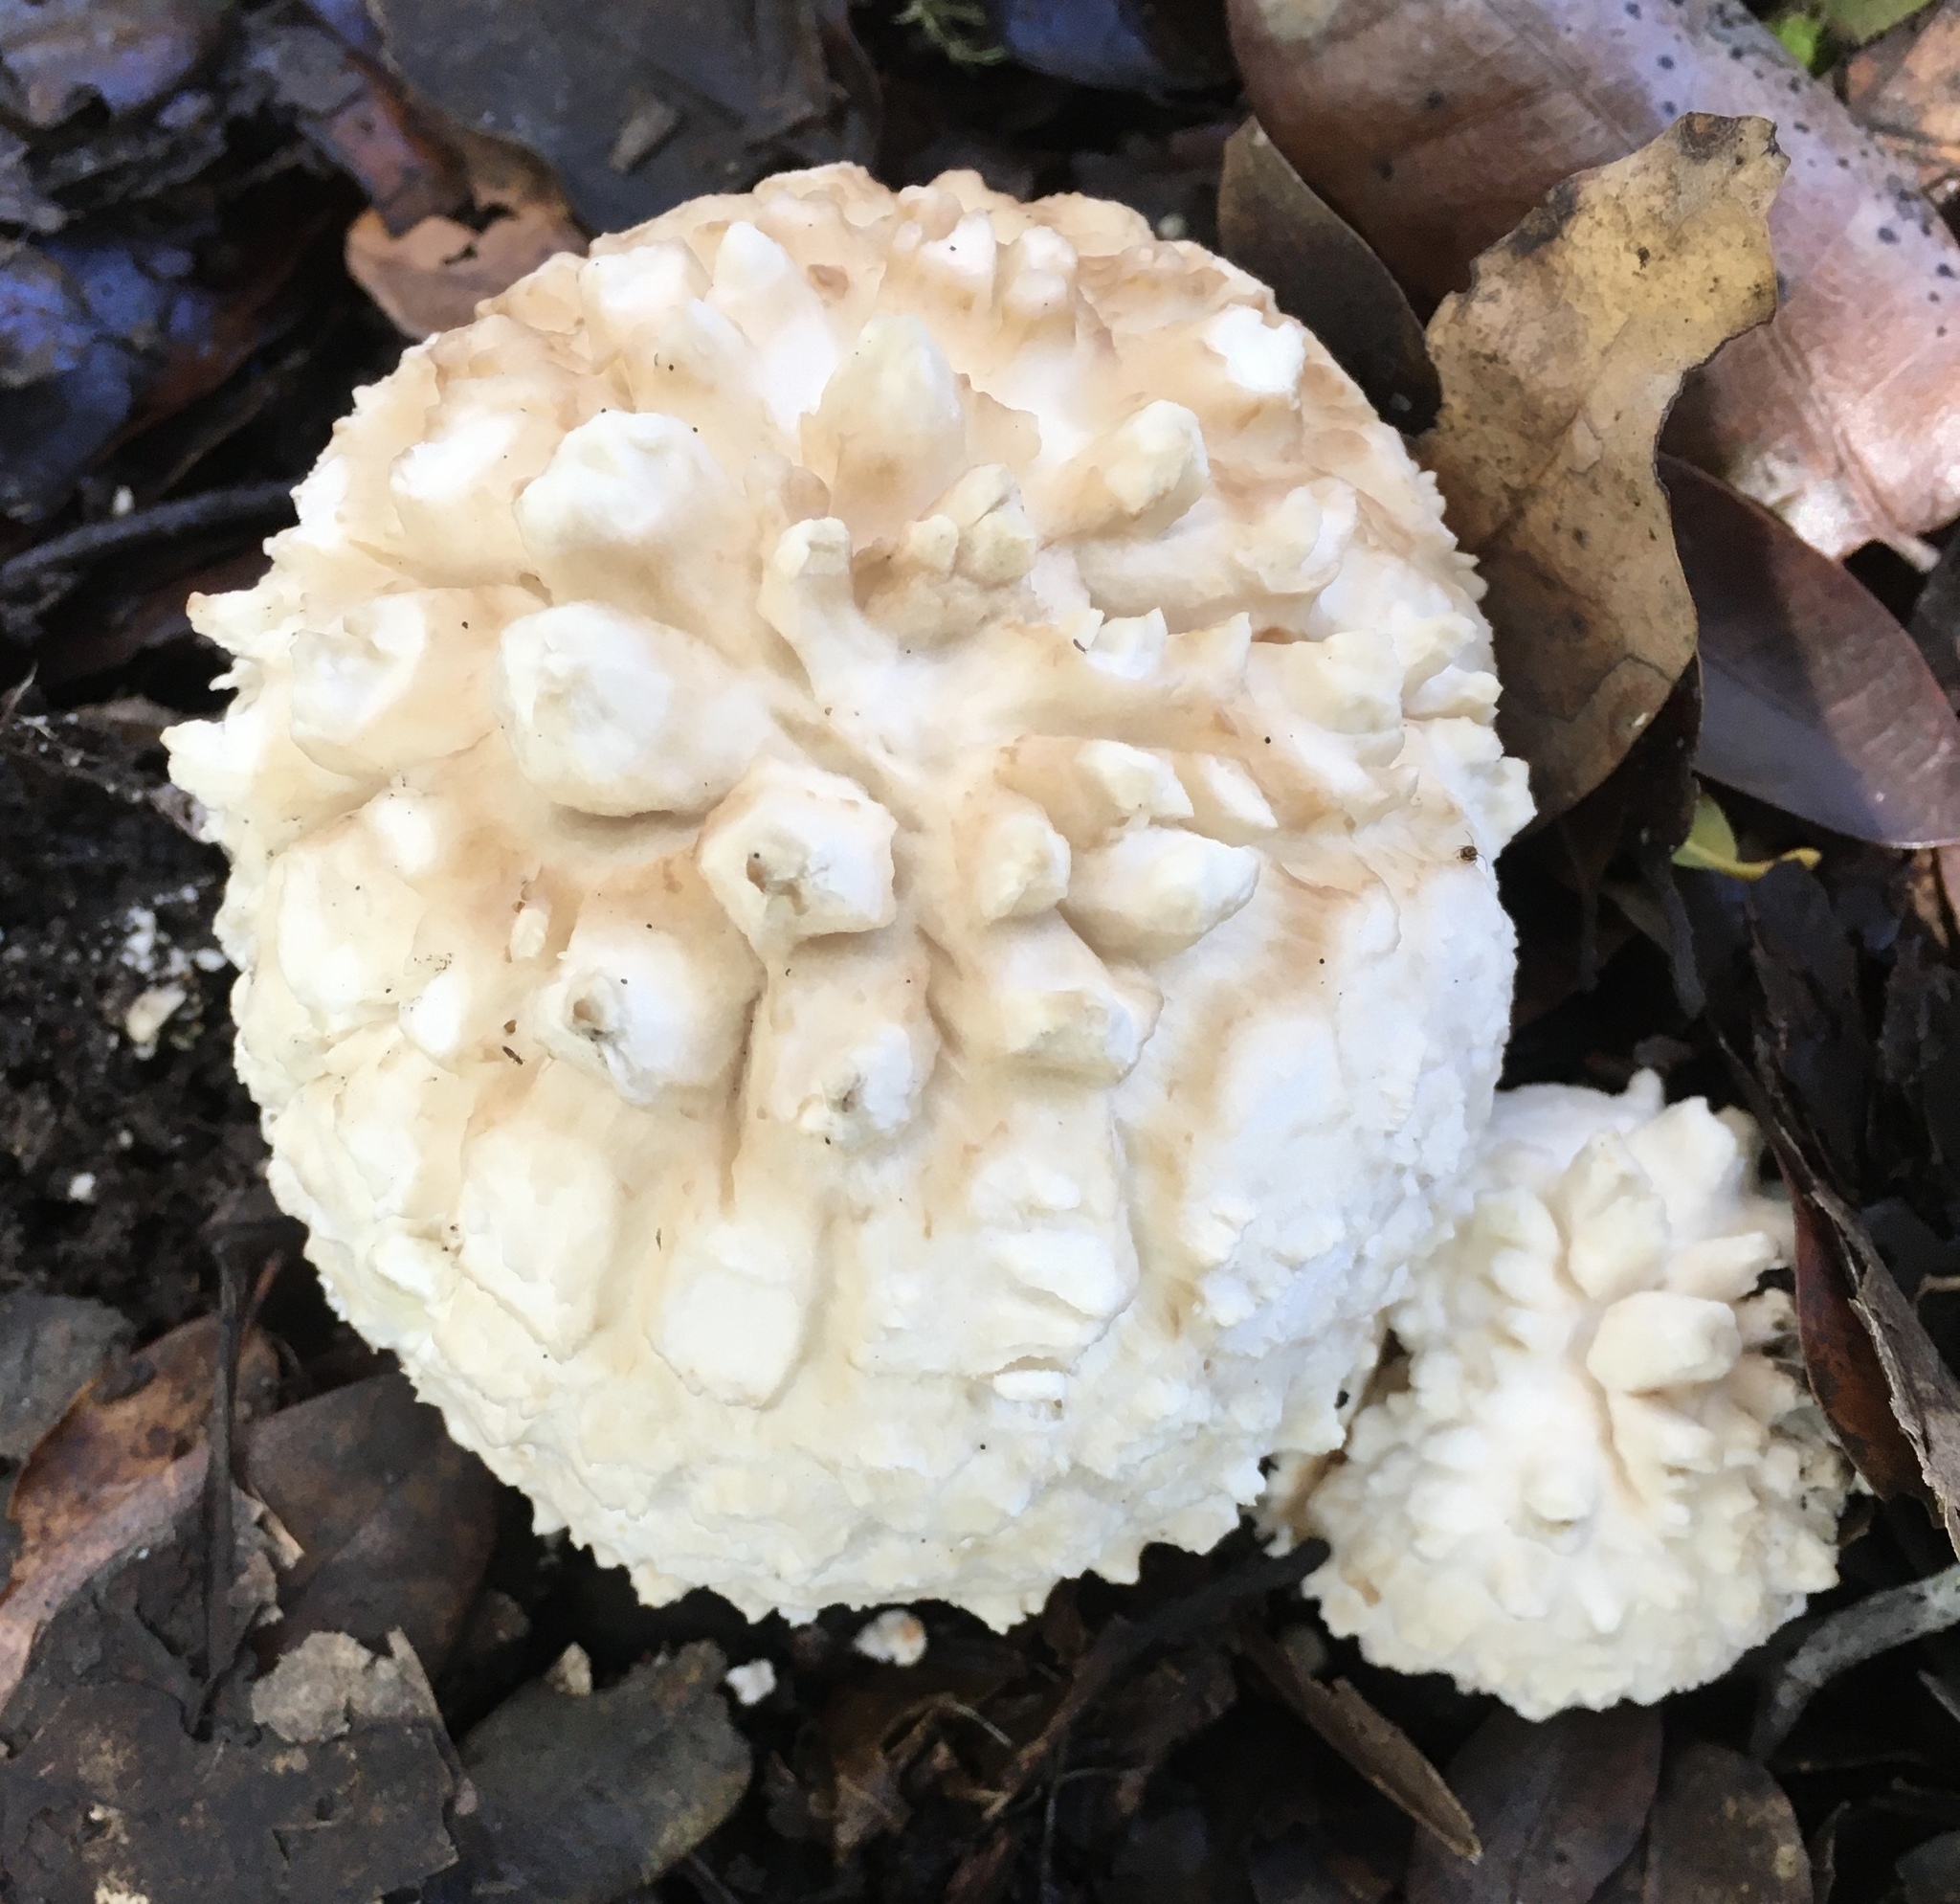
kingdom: Fungi
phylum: Basidiomycota
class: Agaricomycetes
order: Agaricales
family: Amanitaceae
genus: Amanita
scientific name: Amanita magniverrucata
